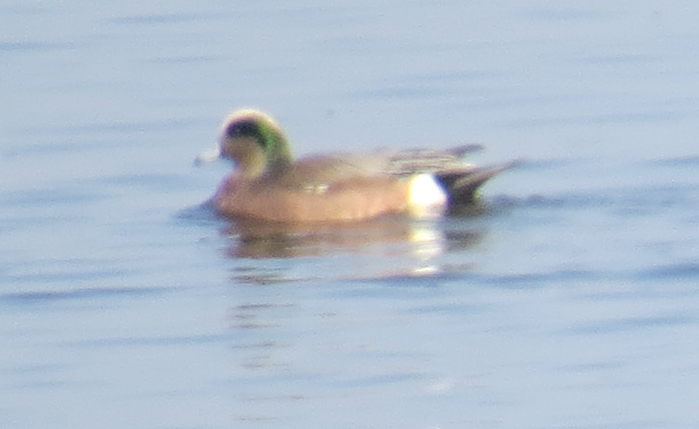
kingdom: Animalia
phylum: Chordata
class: Aves
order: Anseriformes
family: Anatidae
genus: Mareca
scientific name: Mareca americana
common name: American wigeon
